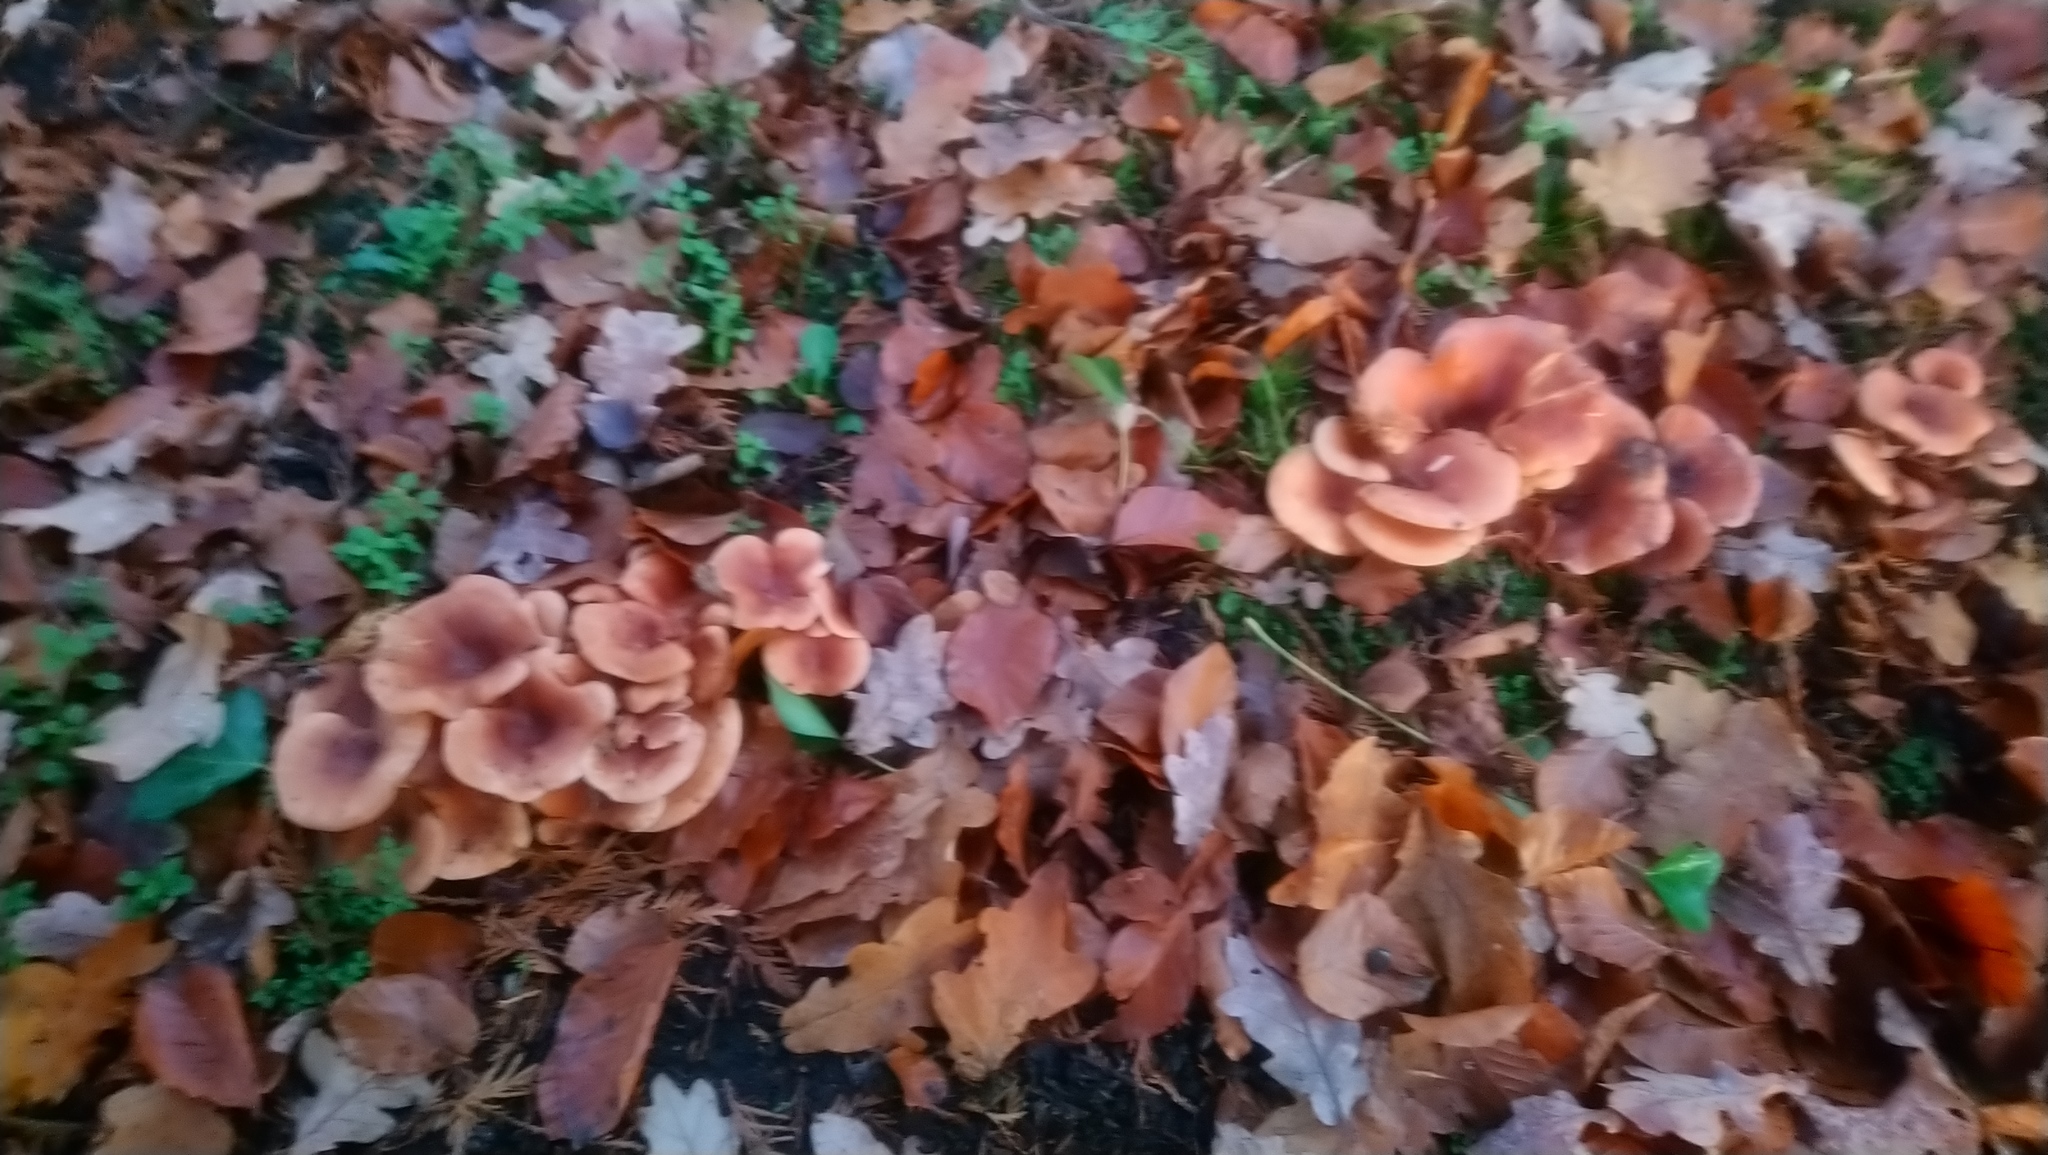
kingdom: Fungi
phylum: Basidiomycota
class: Agaricomycetes
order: Agaricales
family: Tricholomataceae
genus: Paralepista
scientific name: Paralepista flaccida
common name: Tawny funnel cap
